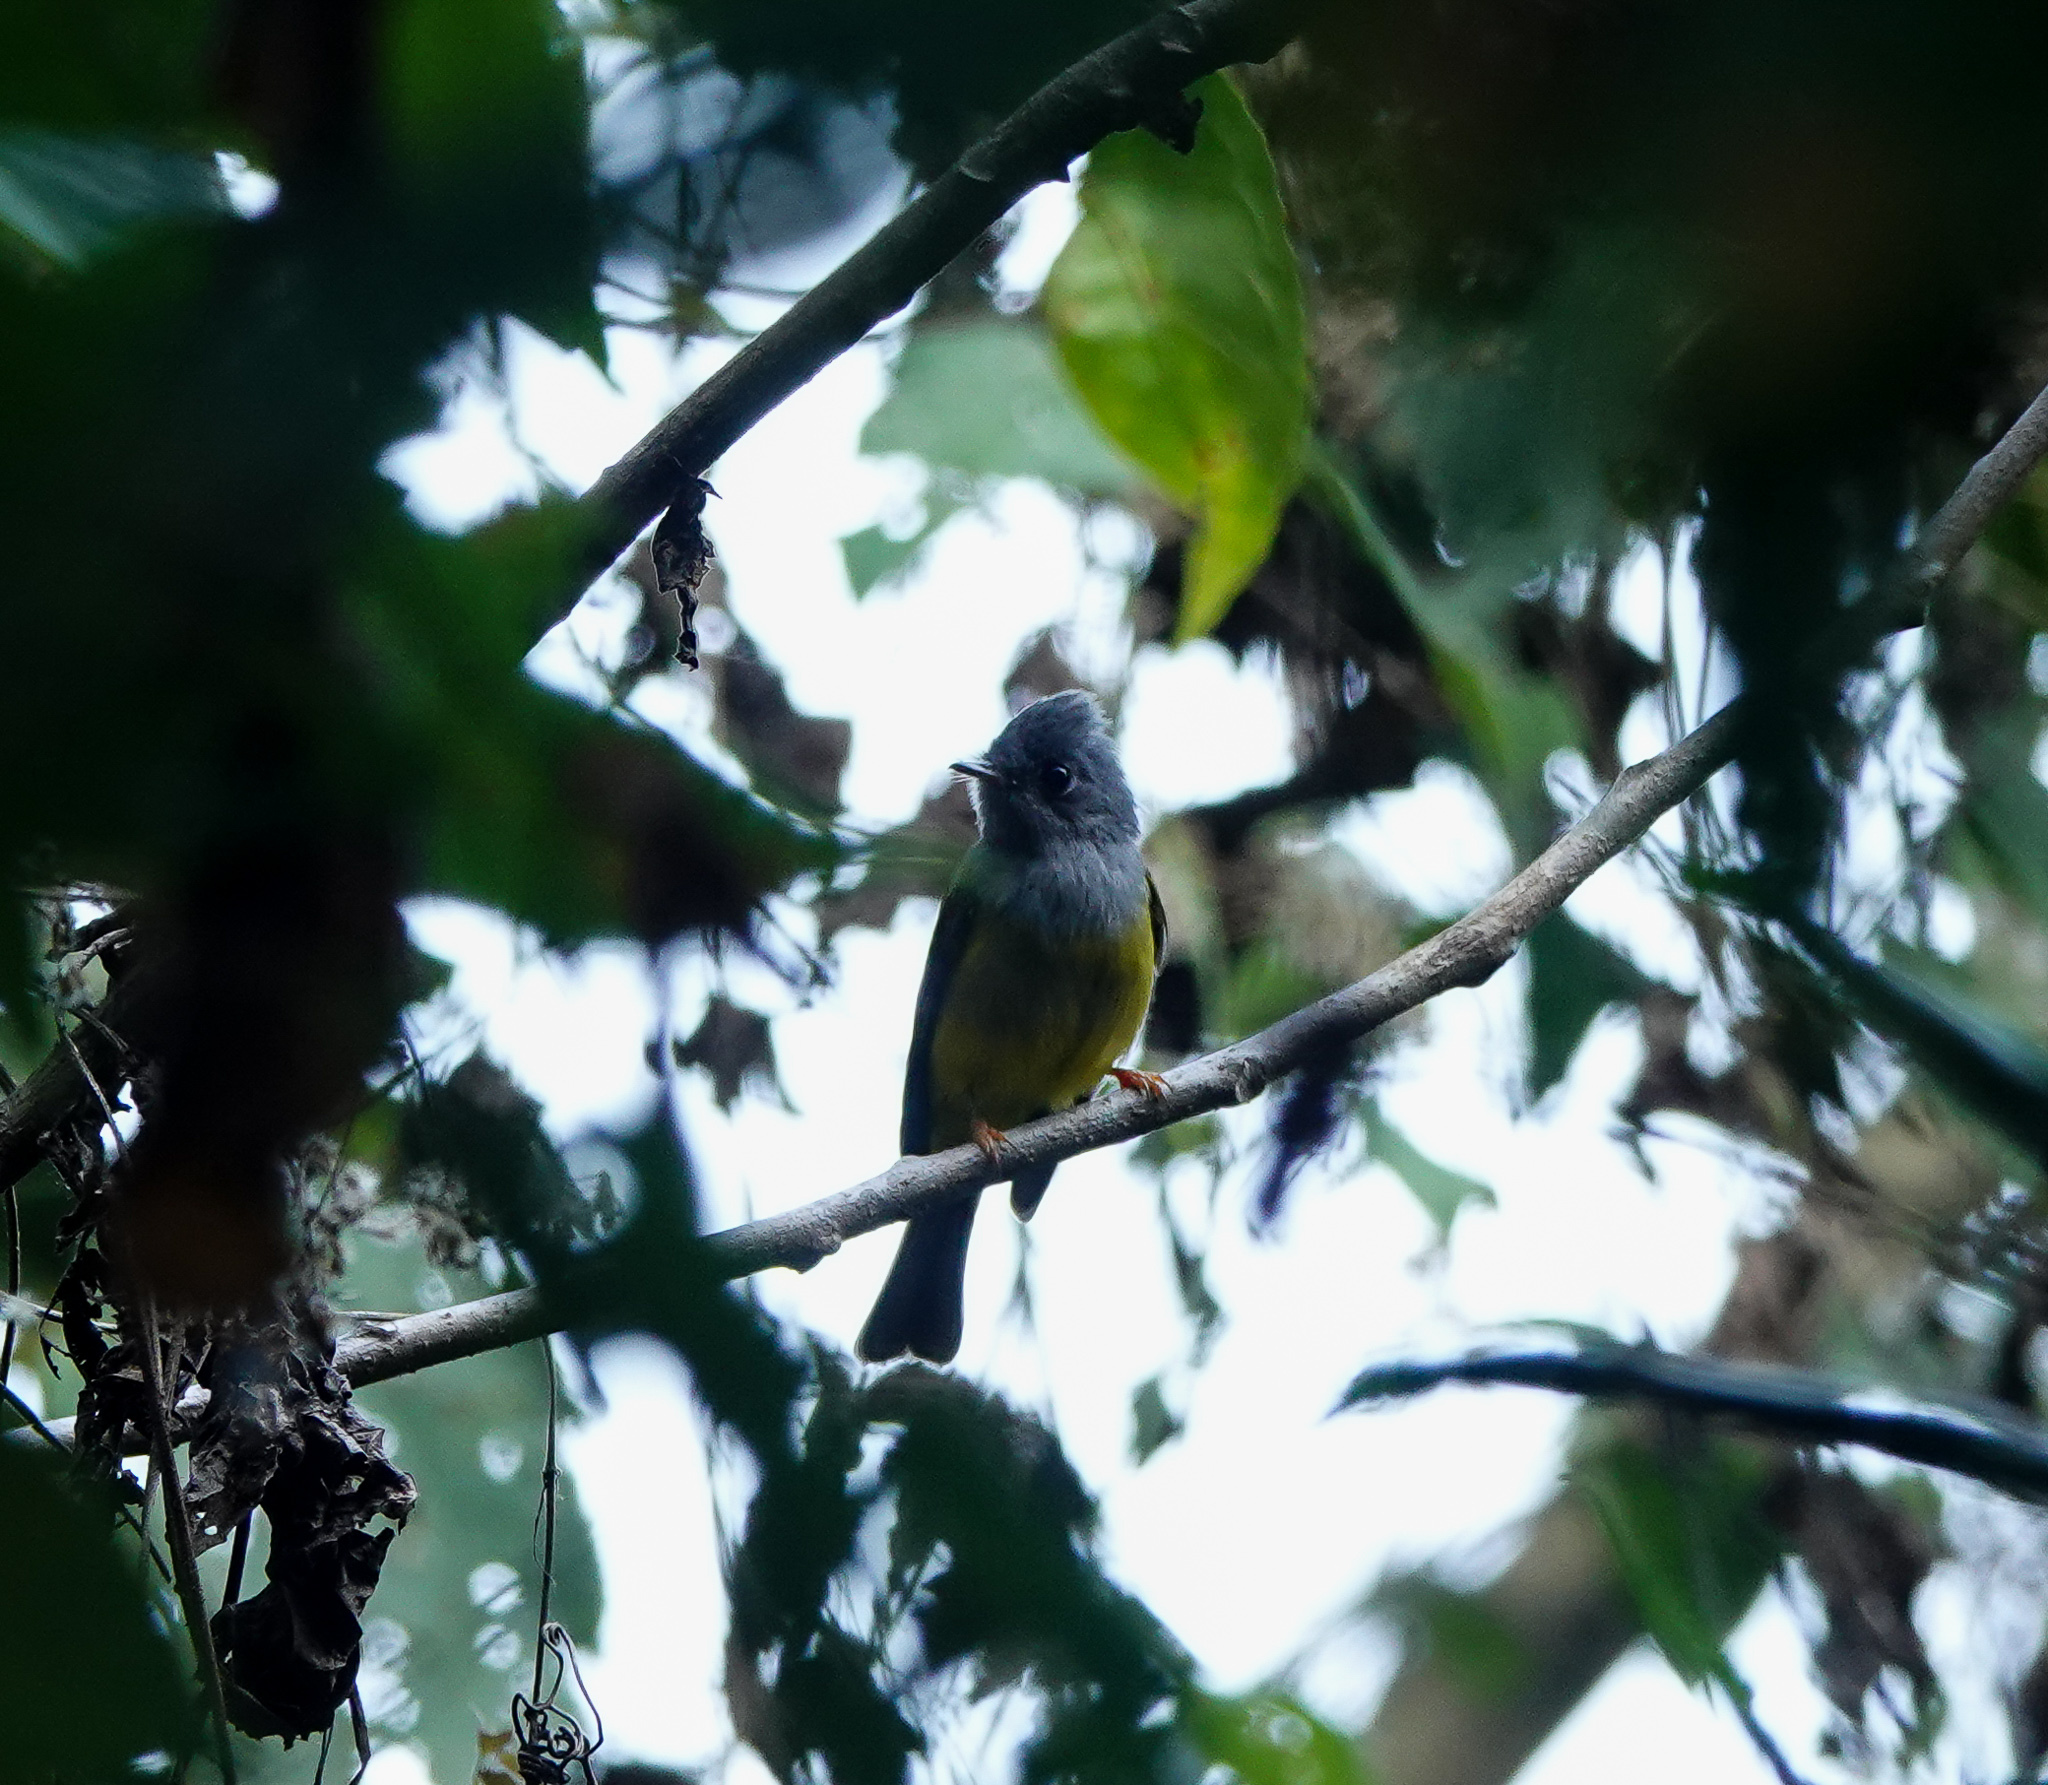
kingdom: Animalia
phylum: Chordata
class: Aves
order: Passeriformes
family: Stenostiridae
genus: Culicicapa
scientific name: Culicicapa ceylonensis
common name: Grey-headed canary-flycatcher
